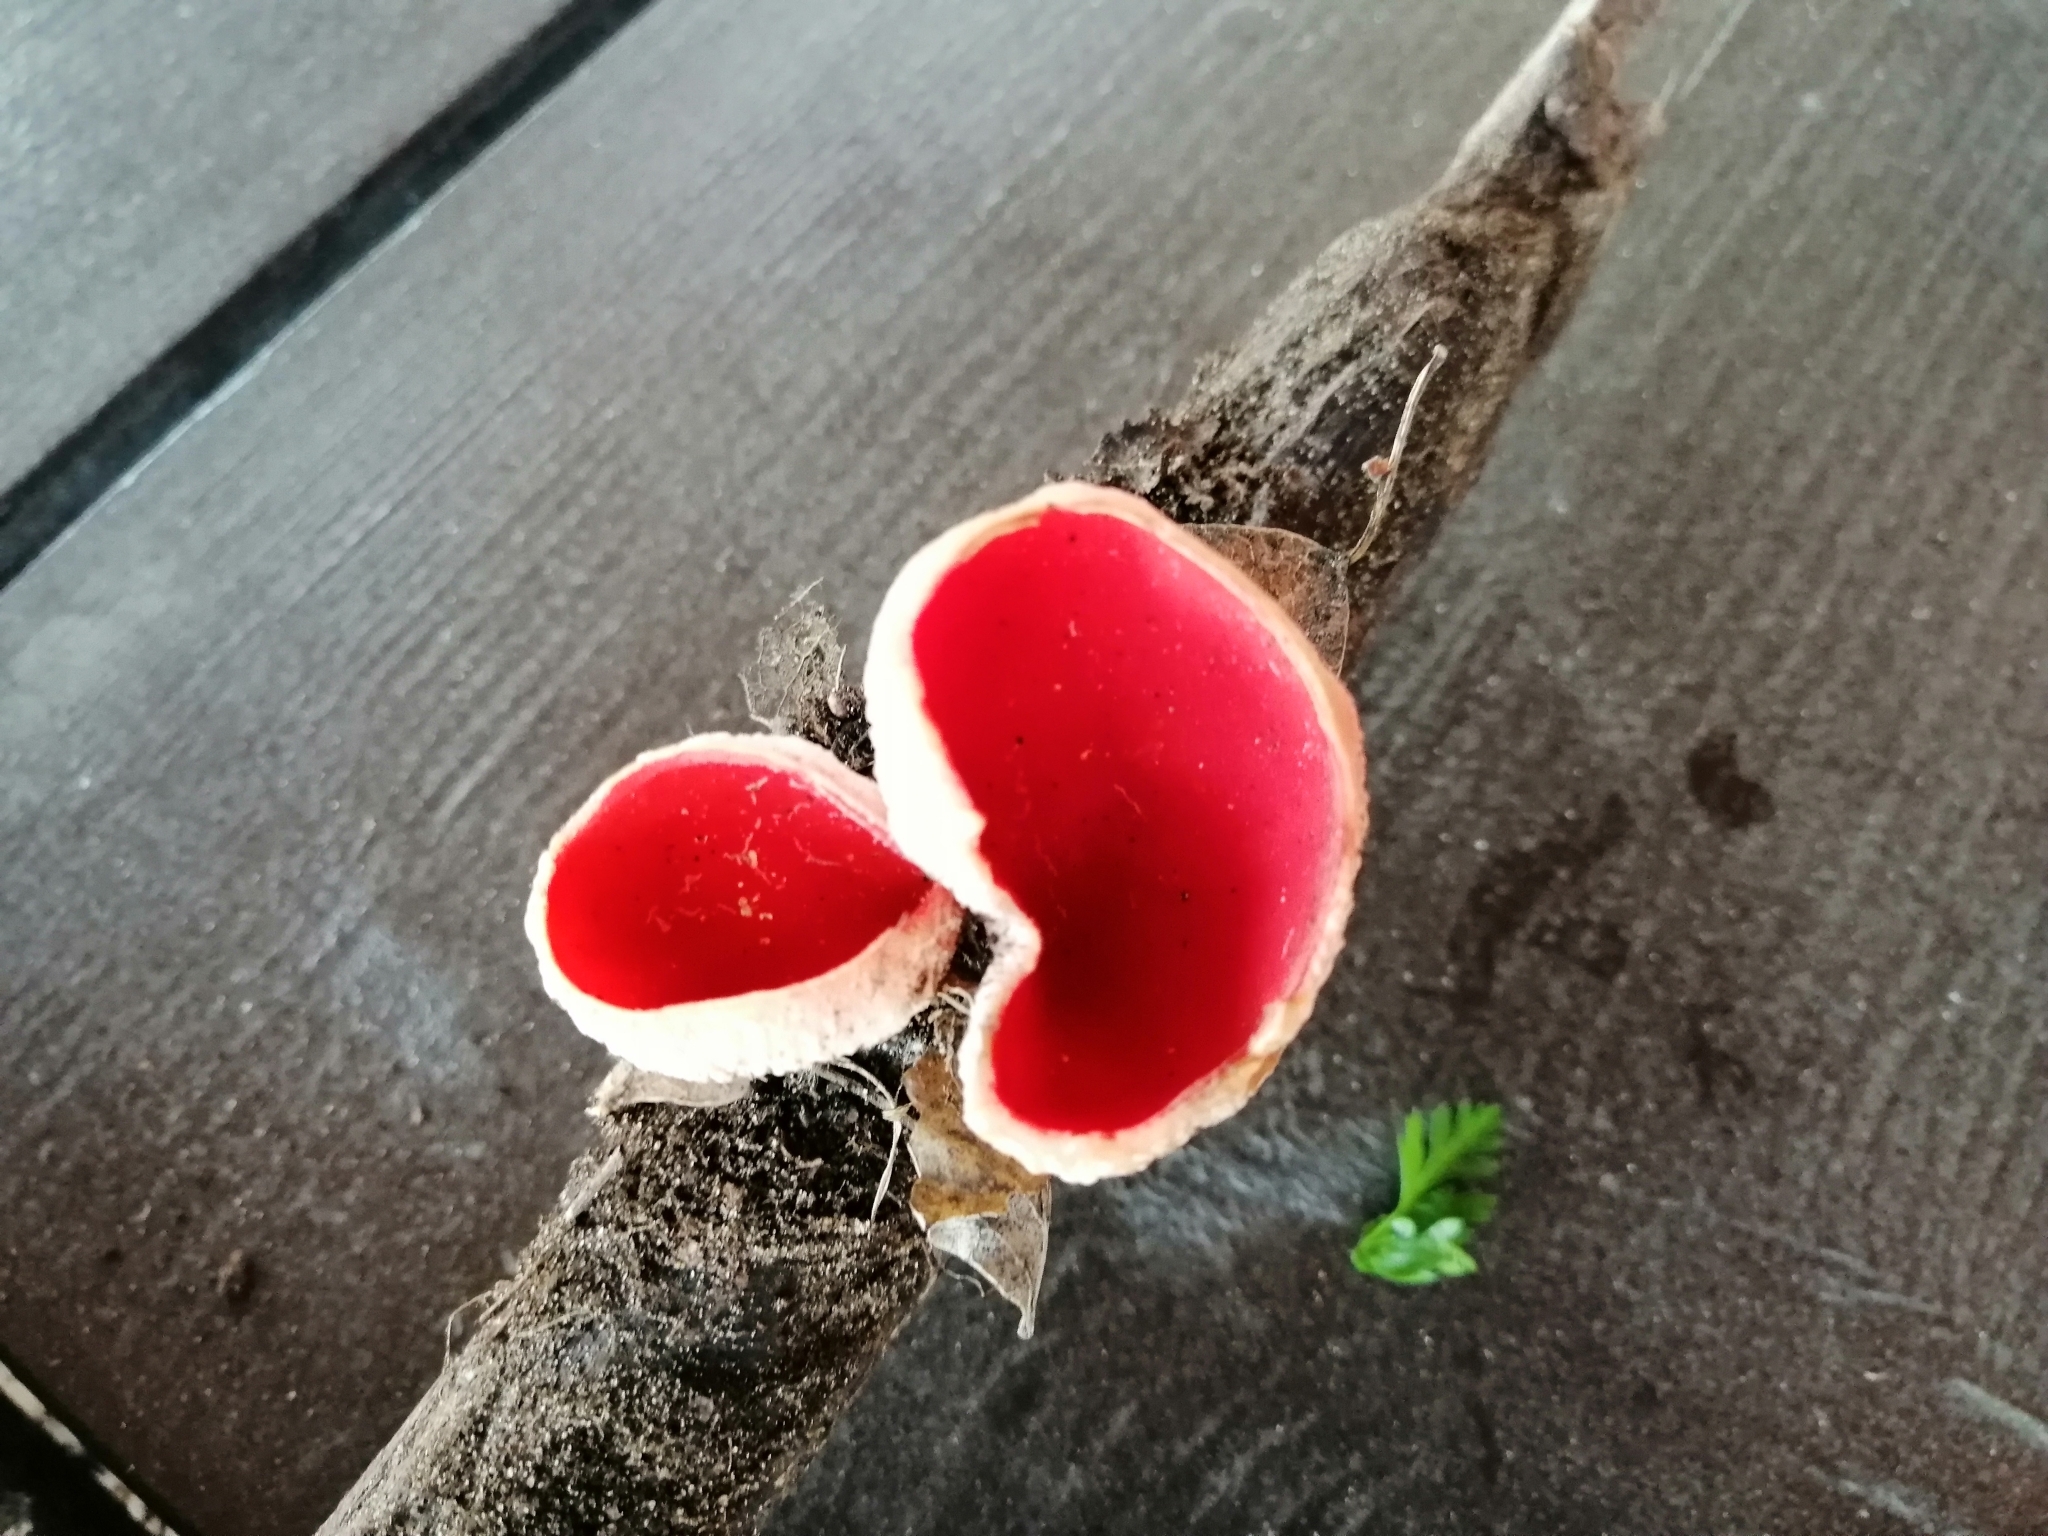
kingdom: Fungi
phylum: Ascomycota
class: Pezizomycetes
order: Pezizales
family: Sarcoscyphaceae
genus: Sarcoscypha
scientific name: Sarcoscypha
